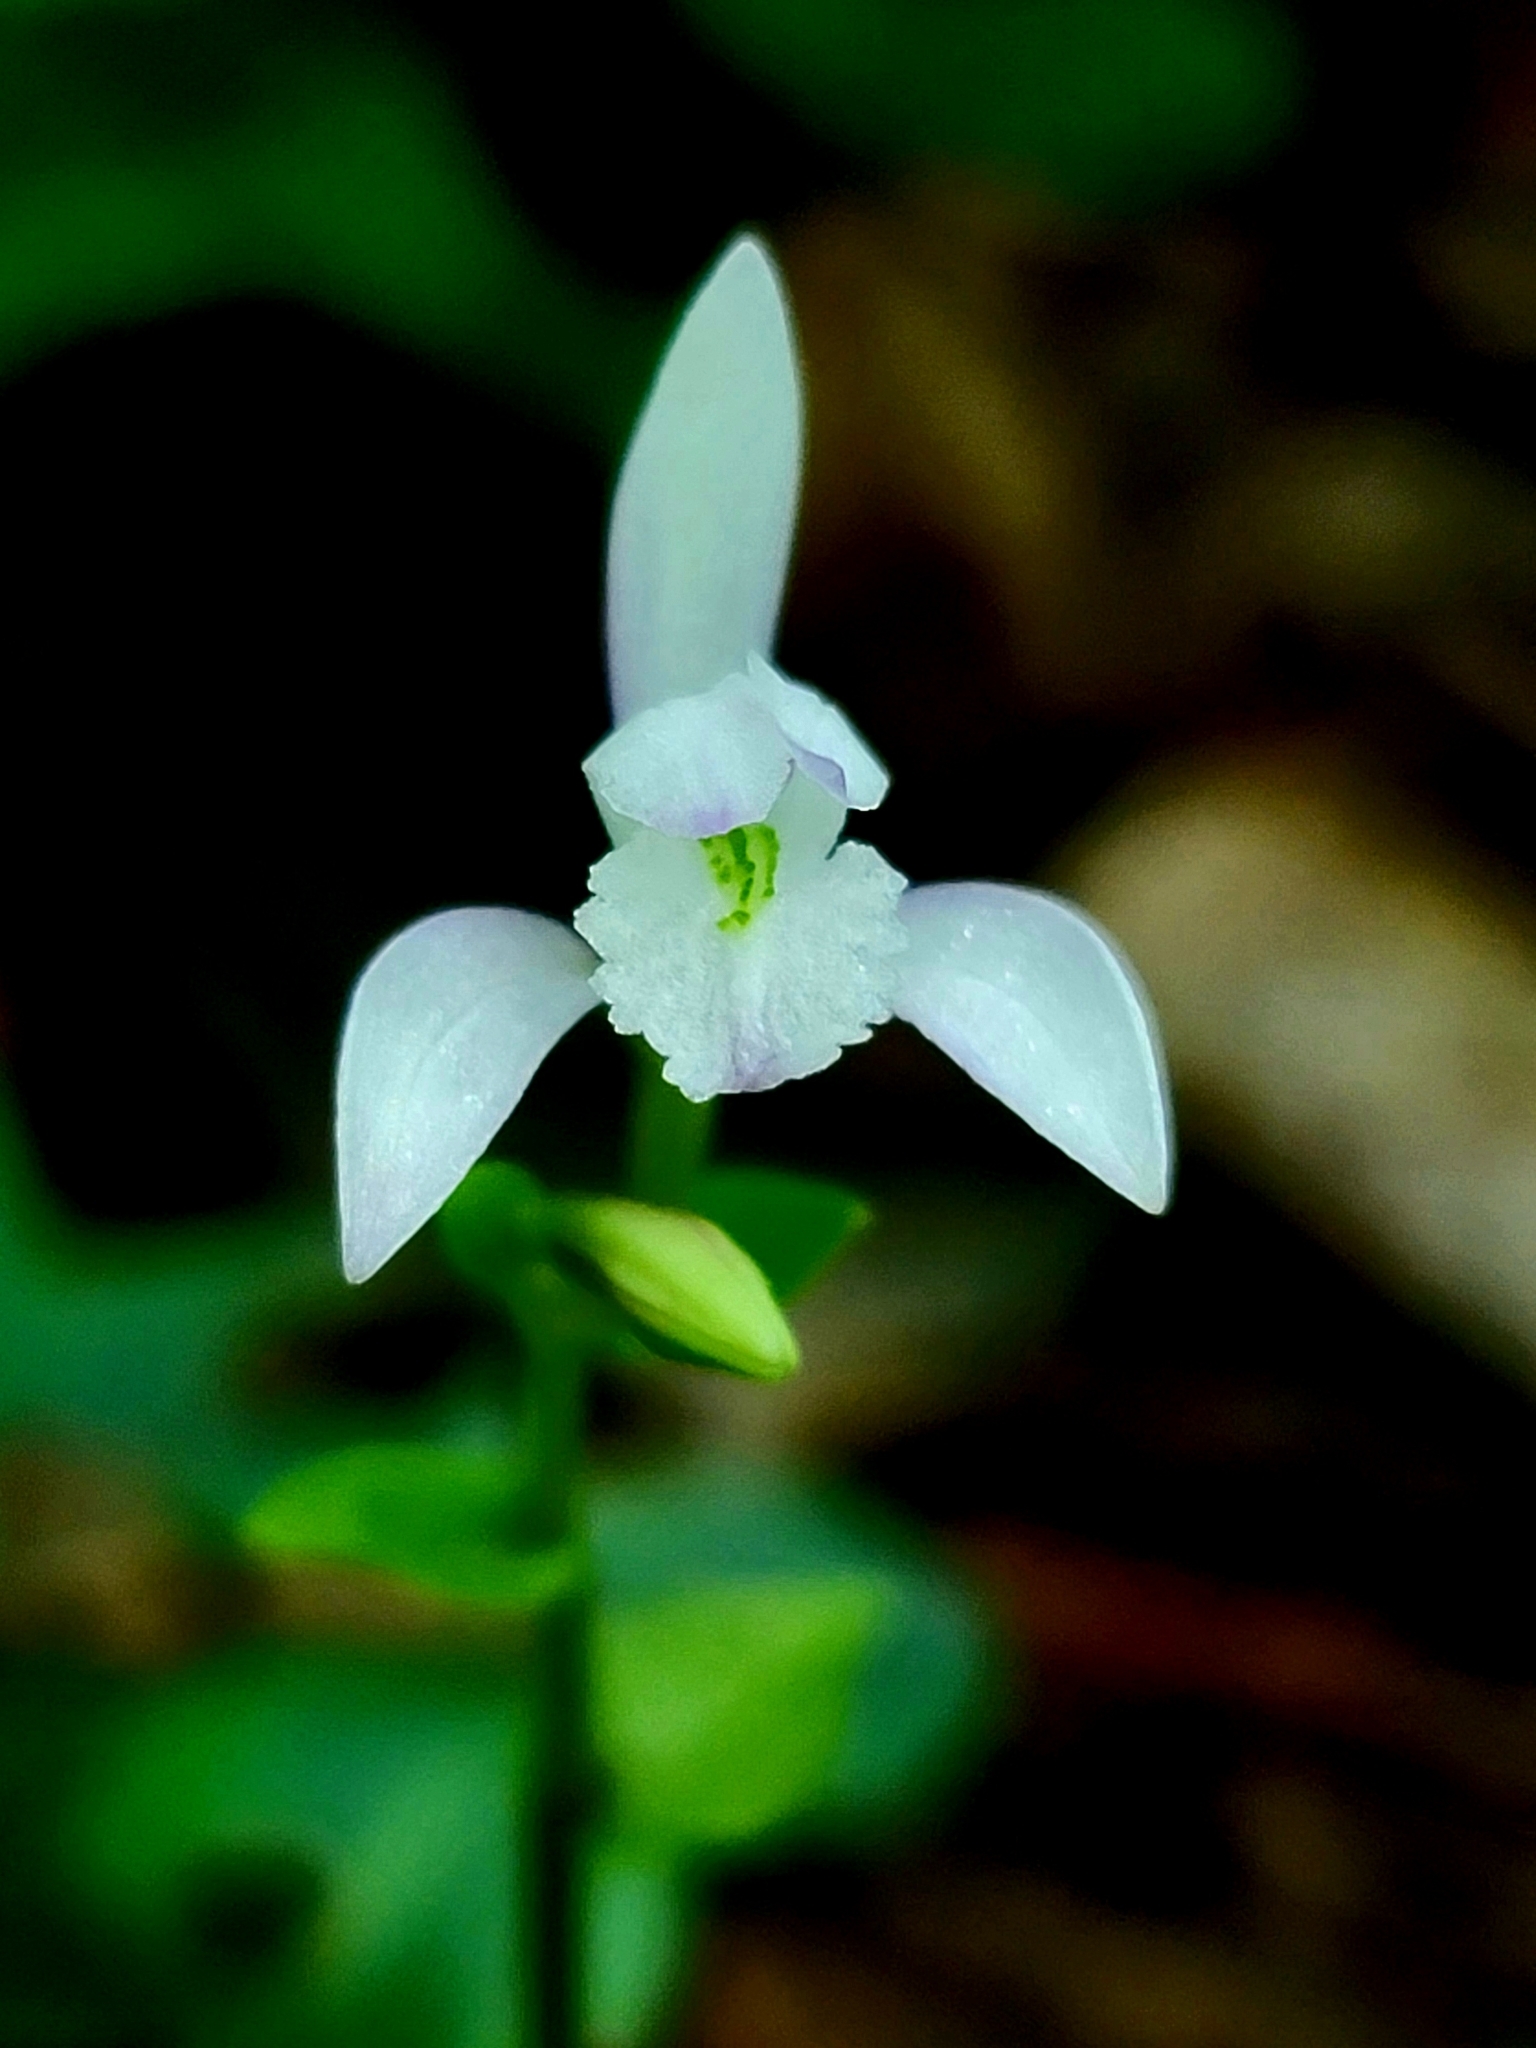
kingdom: Plantae
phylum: Tracheophyta
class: Liliopsida
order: Asparagales
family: Orchidaceae
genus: Triphora
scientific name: Triphora trianthophoros
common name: Three birds orchid
